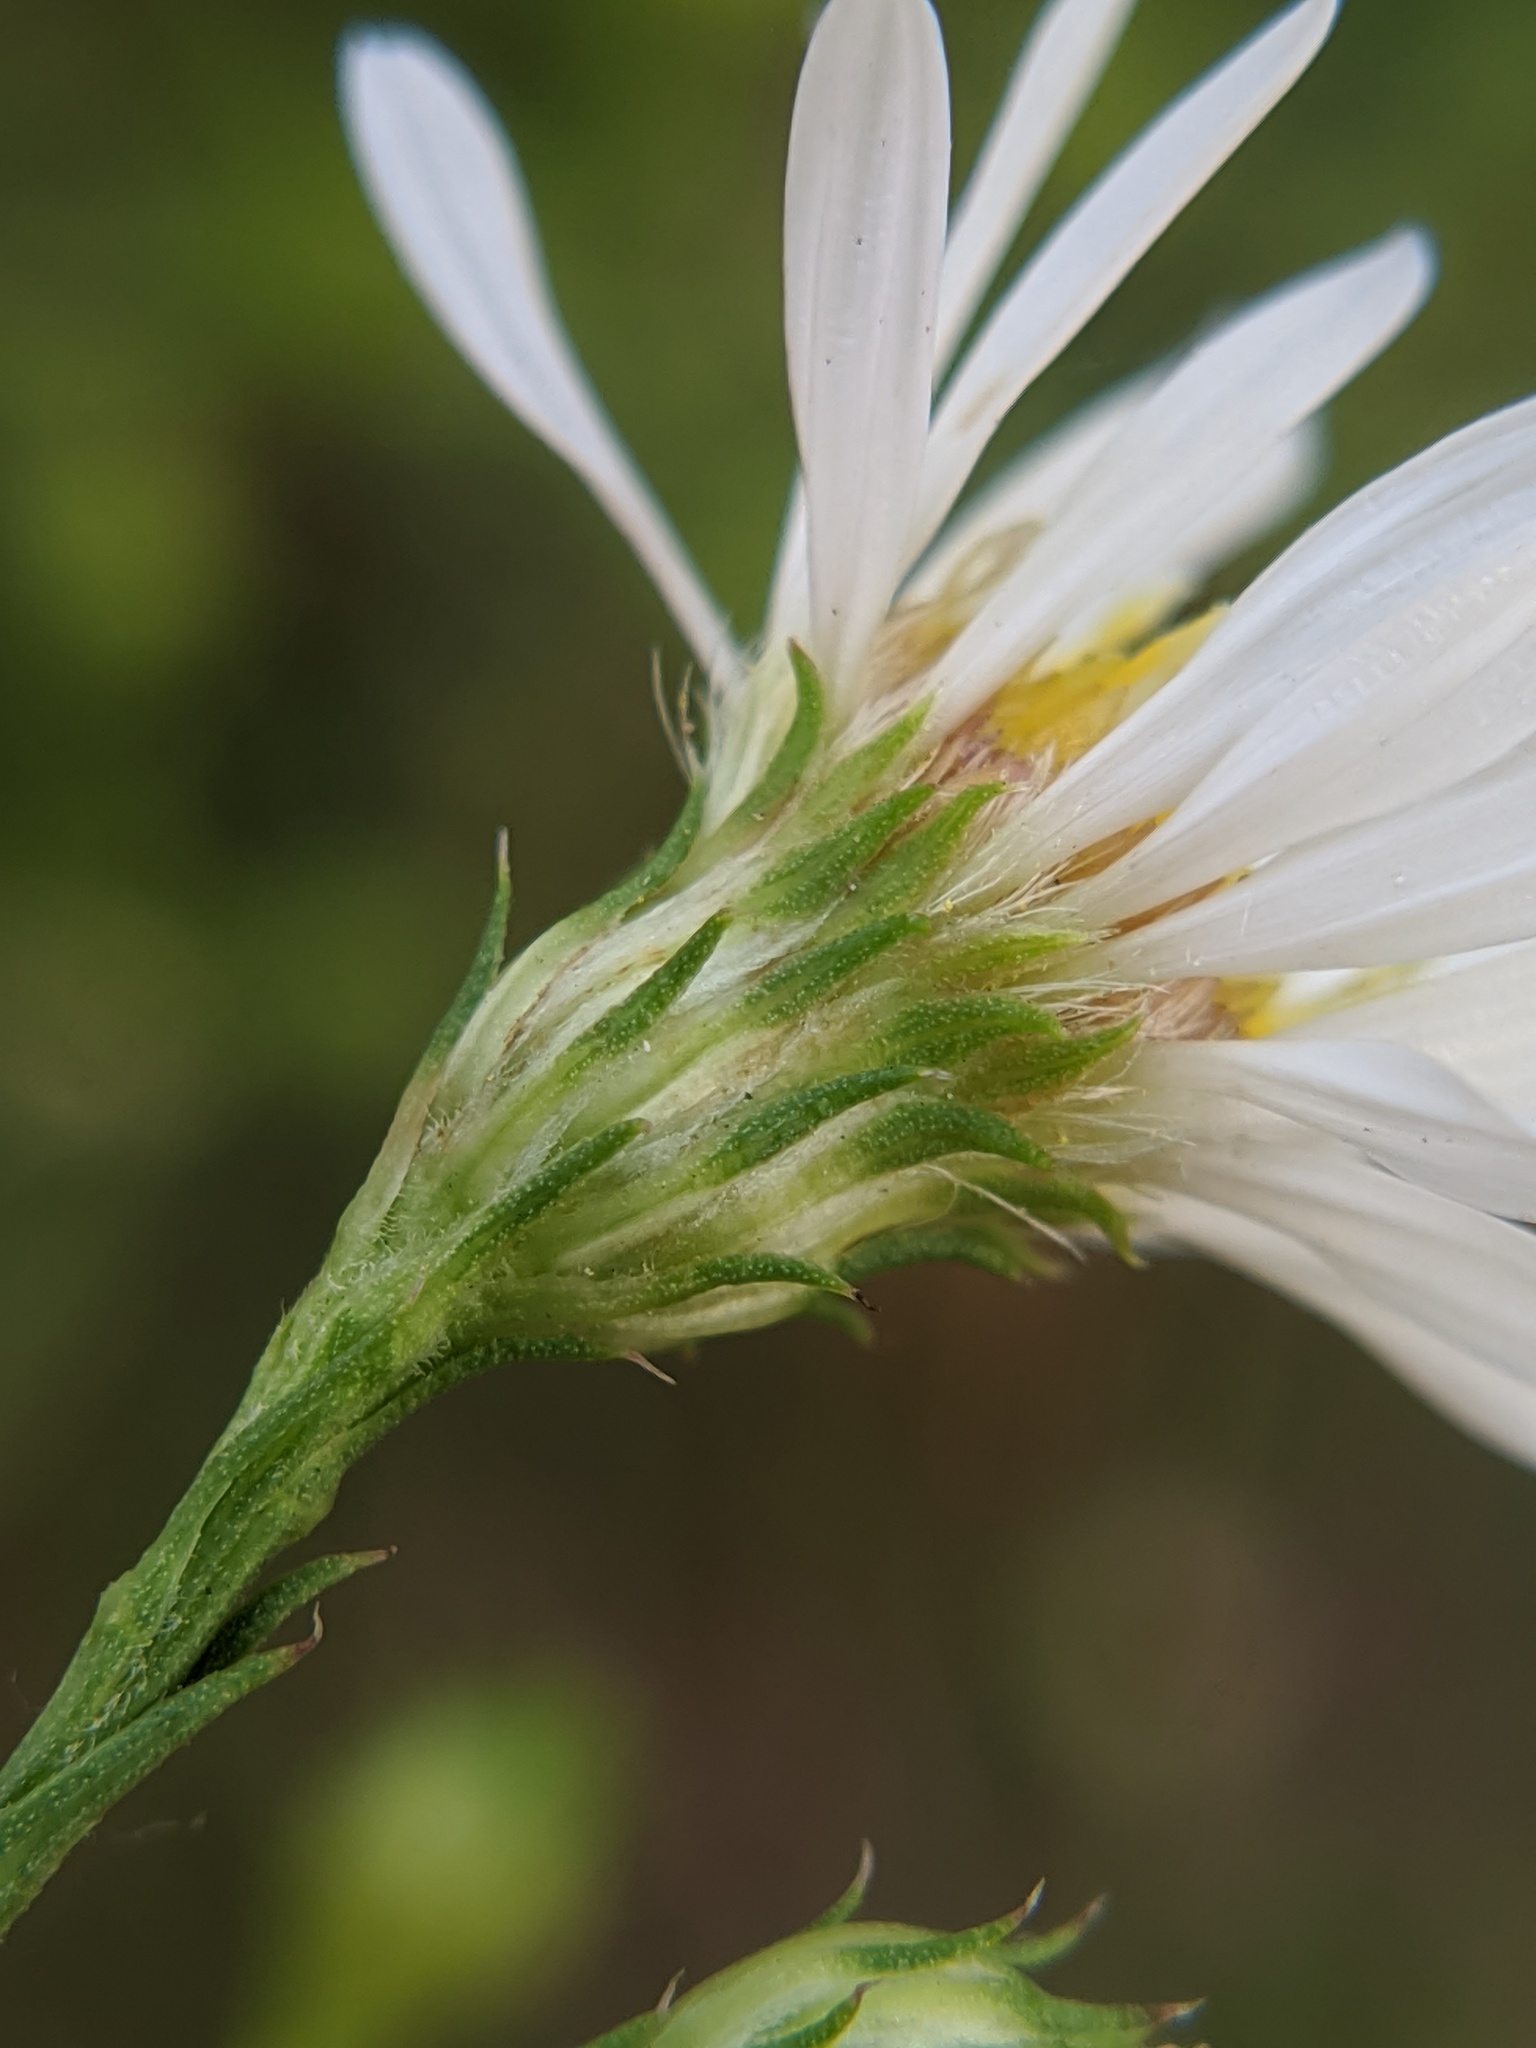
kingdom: Plantae
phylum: Tracheophyta
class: Magnoliopsida
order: Asterales
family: Asteraceae
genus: Symphyotrichum
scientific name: Symphyotrichum pilosum
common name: Awl aster
